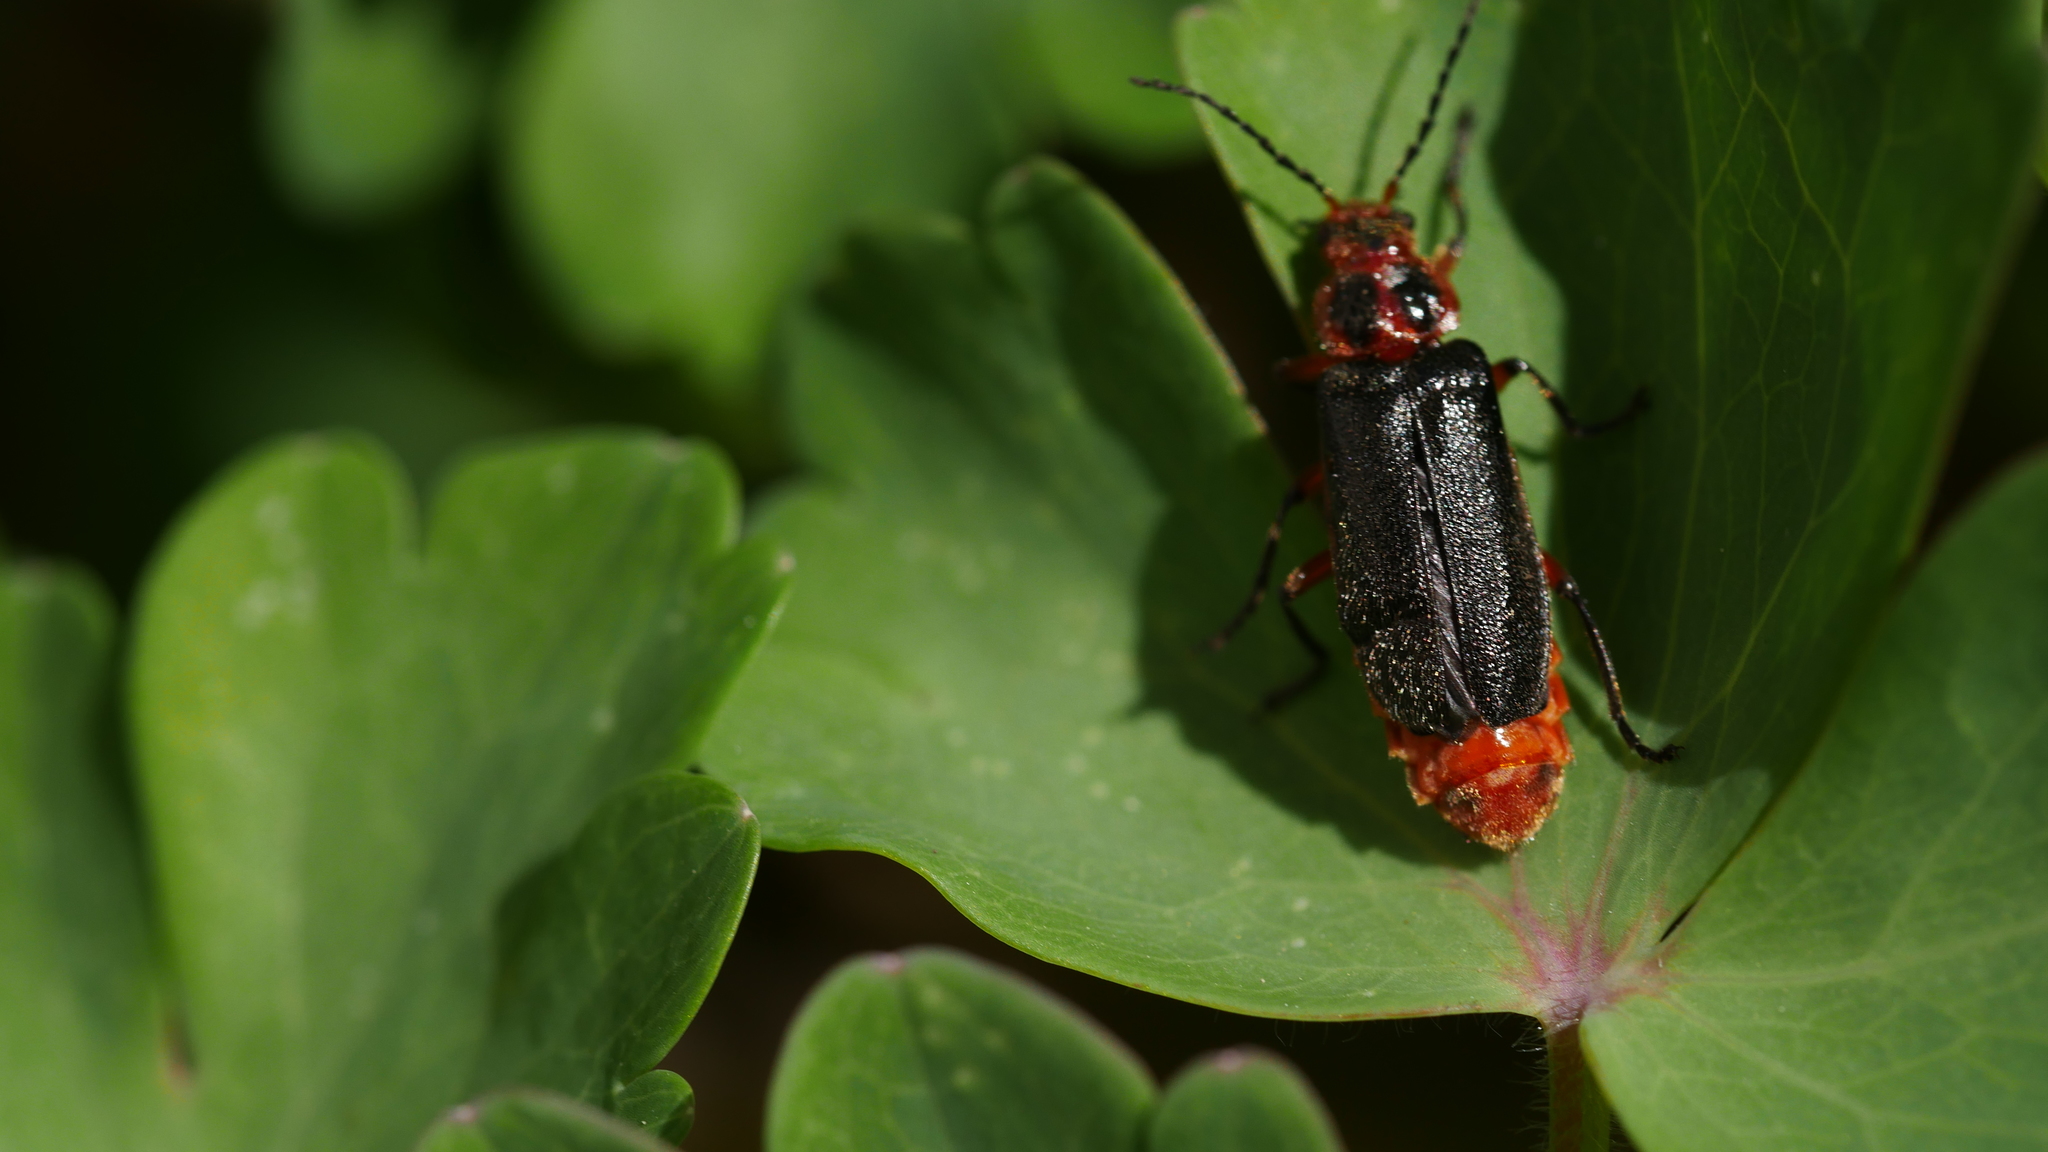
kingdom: Animalia
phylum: Arthropoda
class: Insecta
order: Coleoptera
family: Cantharidae
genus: Atalantycha
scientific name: Atalantycha bilineata
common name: Two-lined leatherwing
